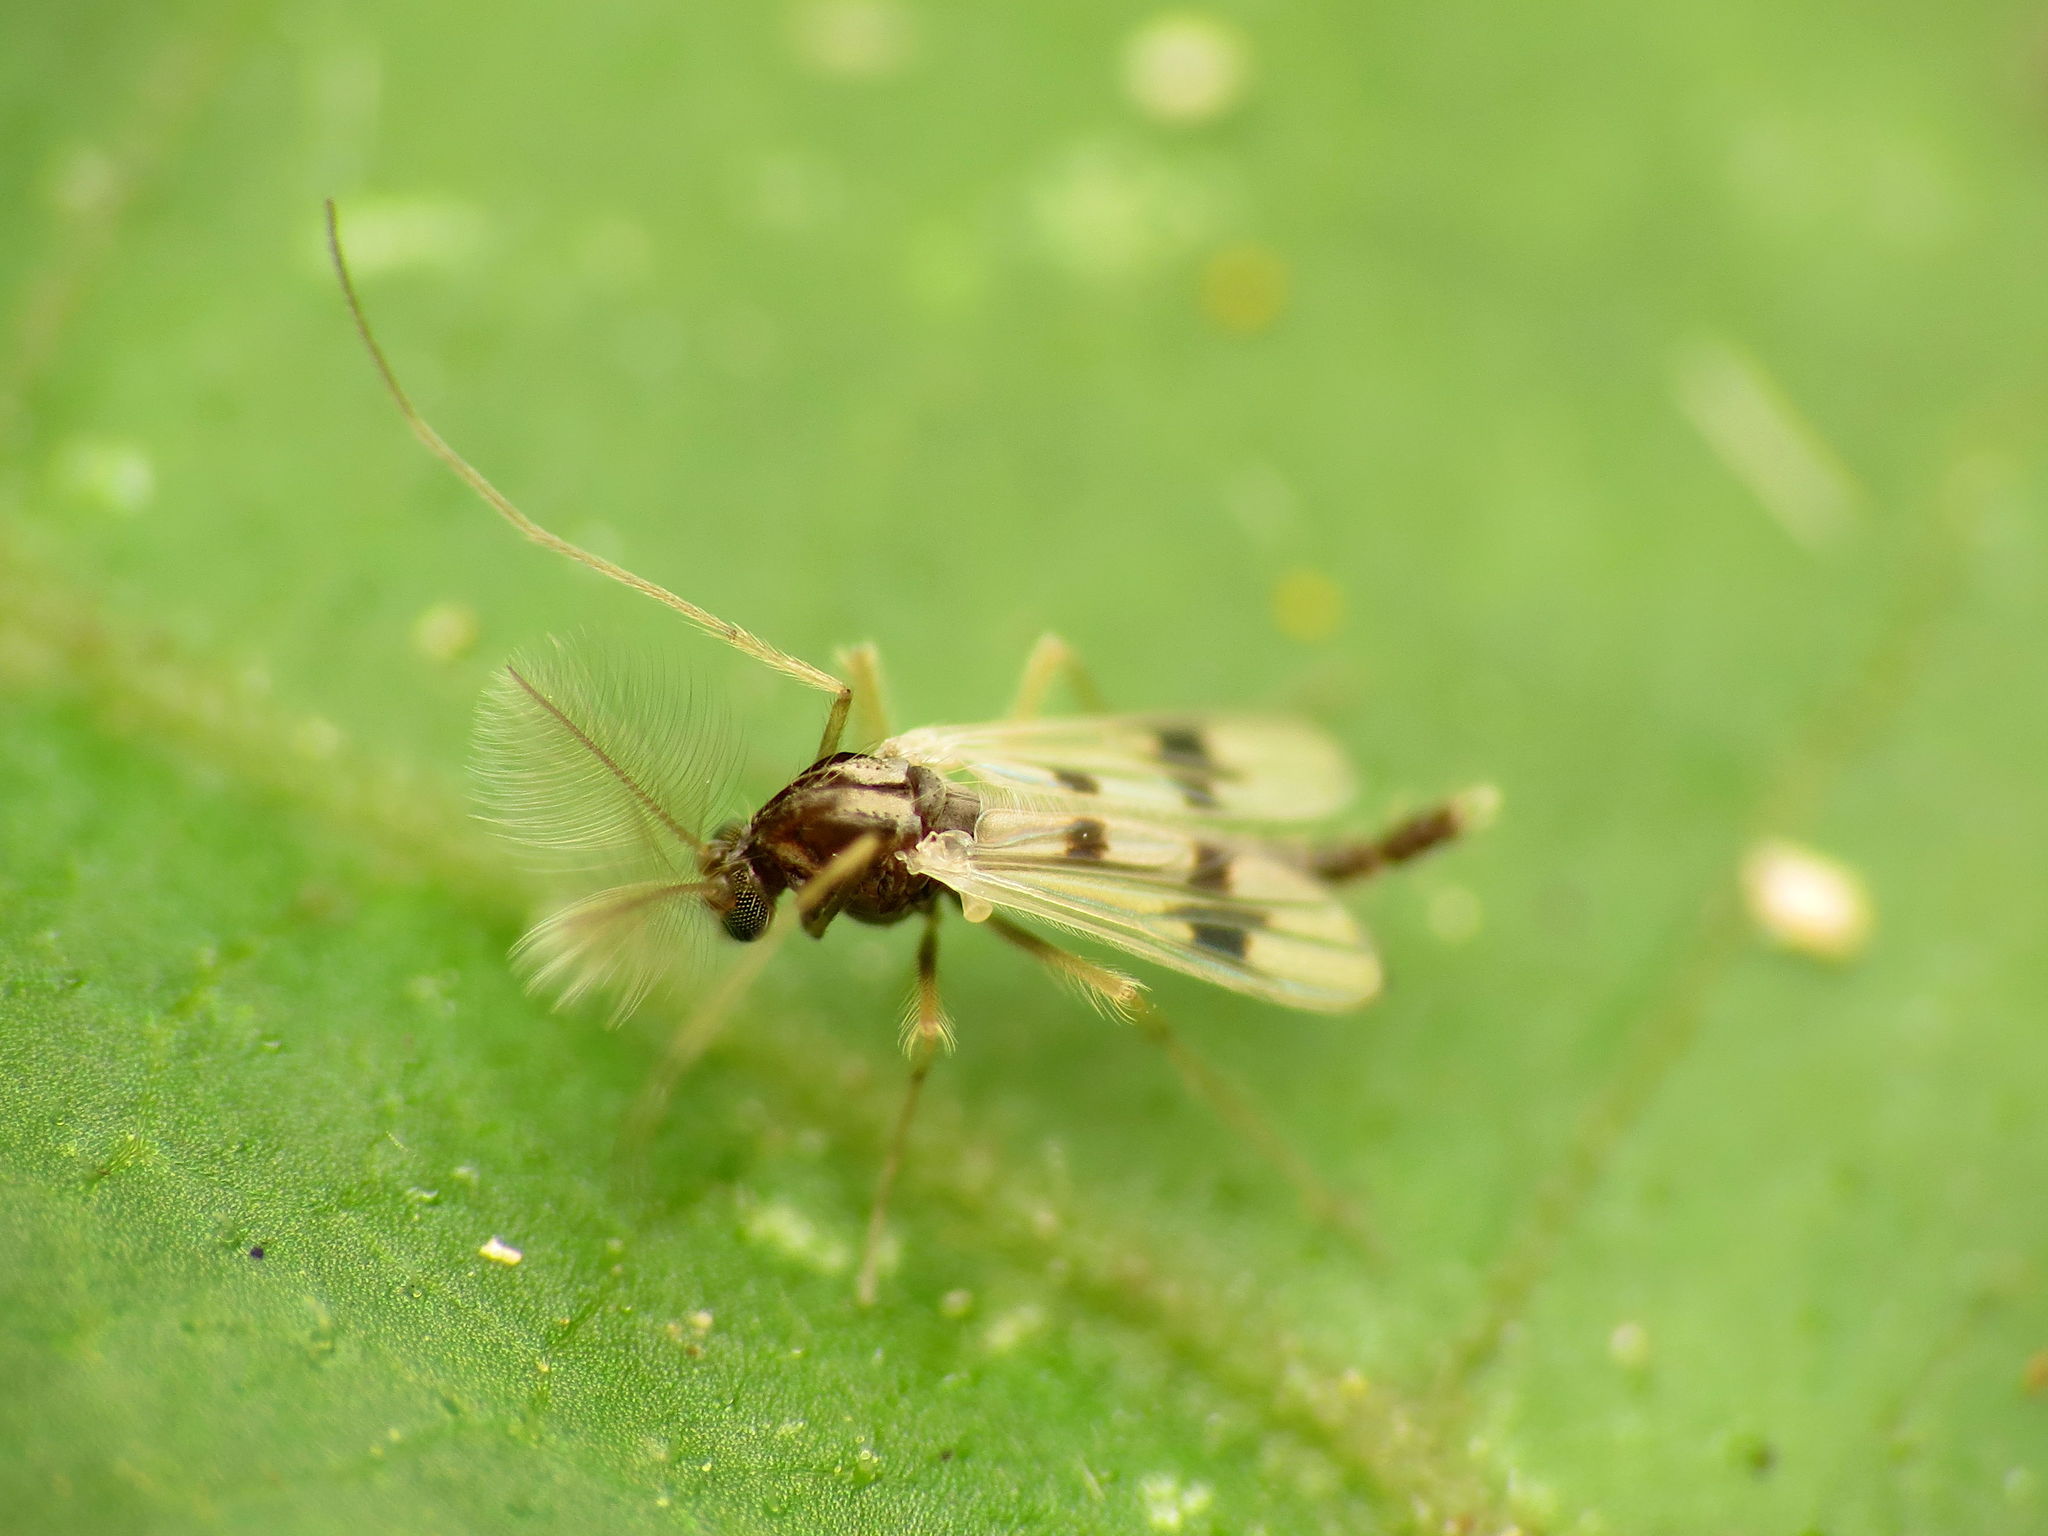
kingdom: Animalia
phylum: Arthropoda
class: Insecta
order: Diptera
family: Chironomidae
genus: Polypedilum
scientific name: Polypedilum scalaenum
